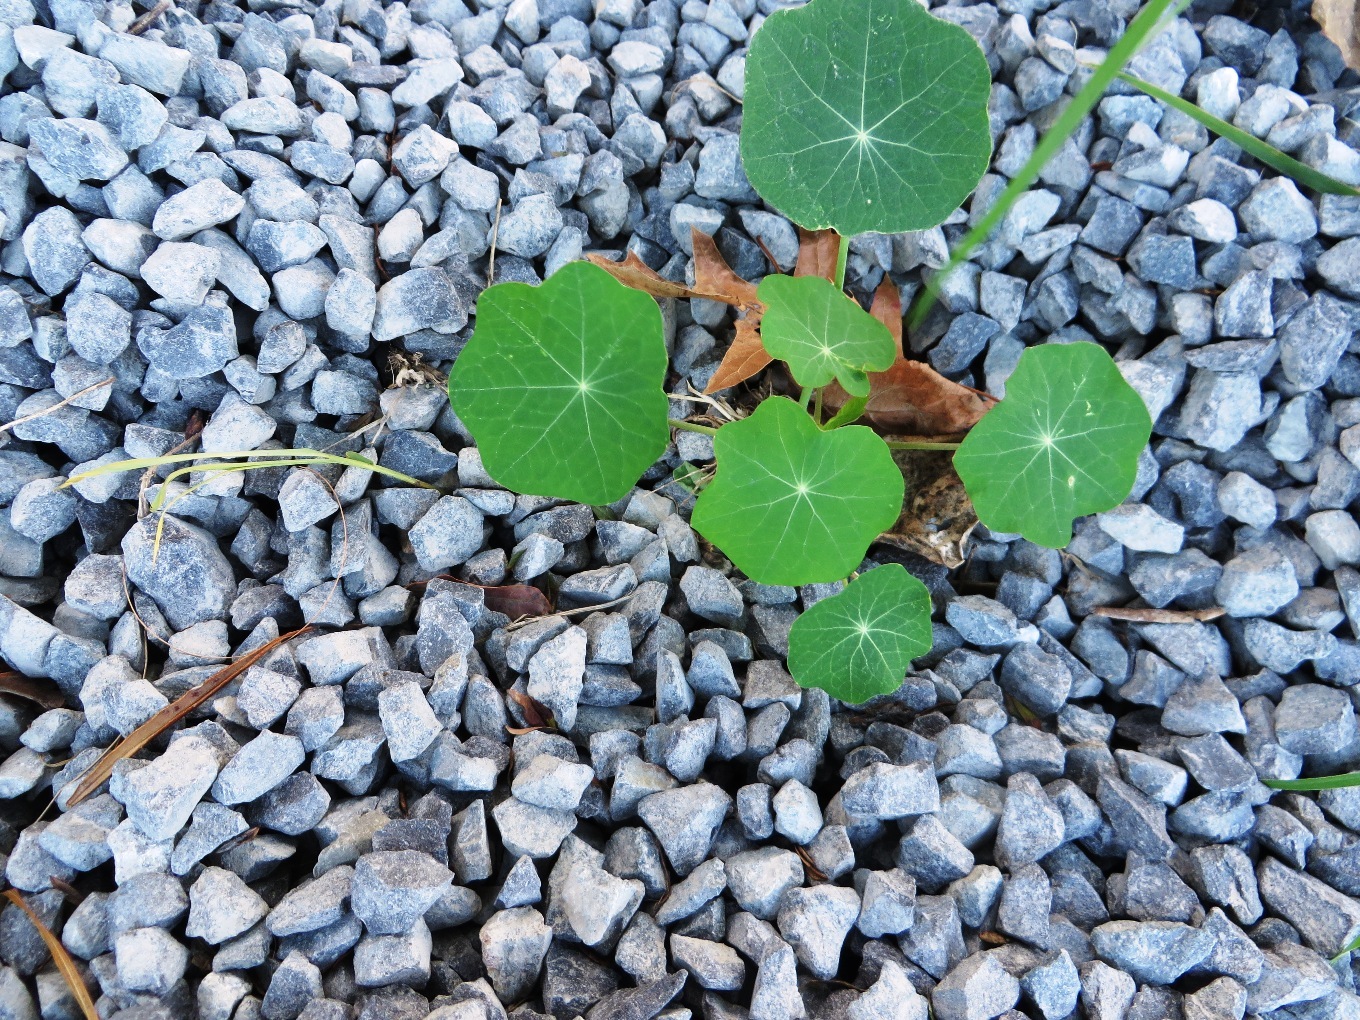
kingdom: Plantae
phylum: Tracheophyta
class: Magnoliopsida
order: Brassicales
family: Tropaeolaceae
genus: Tropaeolum
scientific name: Tropaeolum majus
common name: Nasturtium
